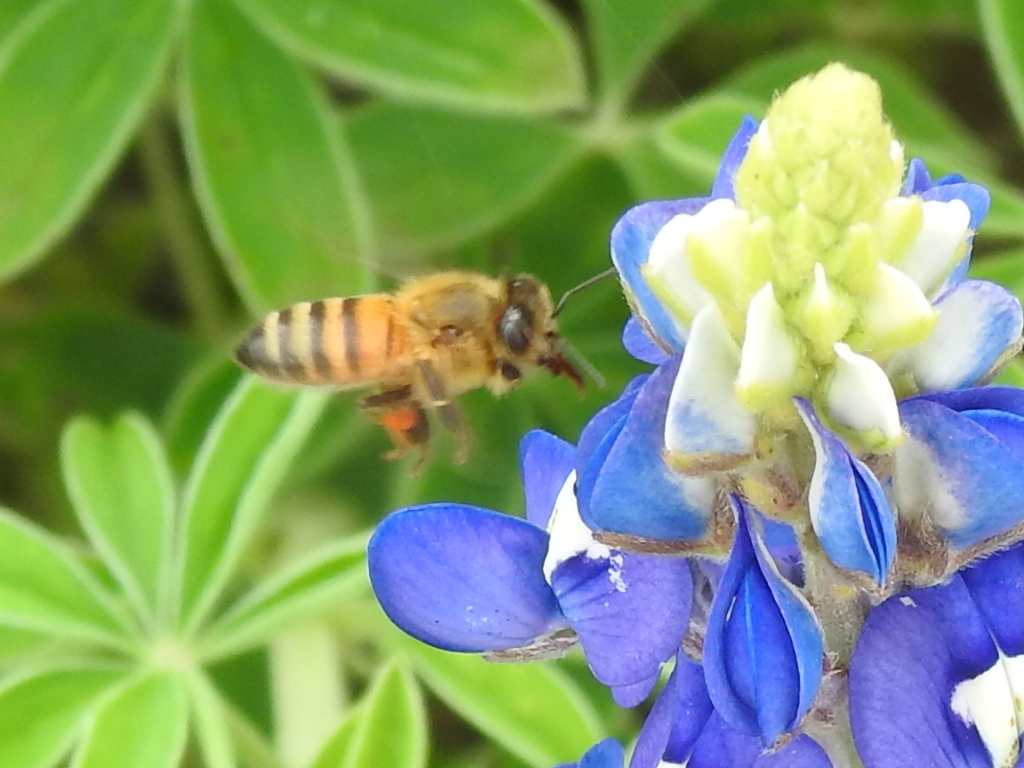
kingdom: Animalia
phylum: Arthropoda
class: Insecta
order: Hymenoptera
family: Apidae
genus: Apis
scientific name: Apis mellifera
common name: Honey bee
